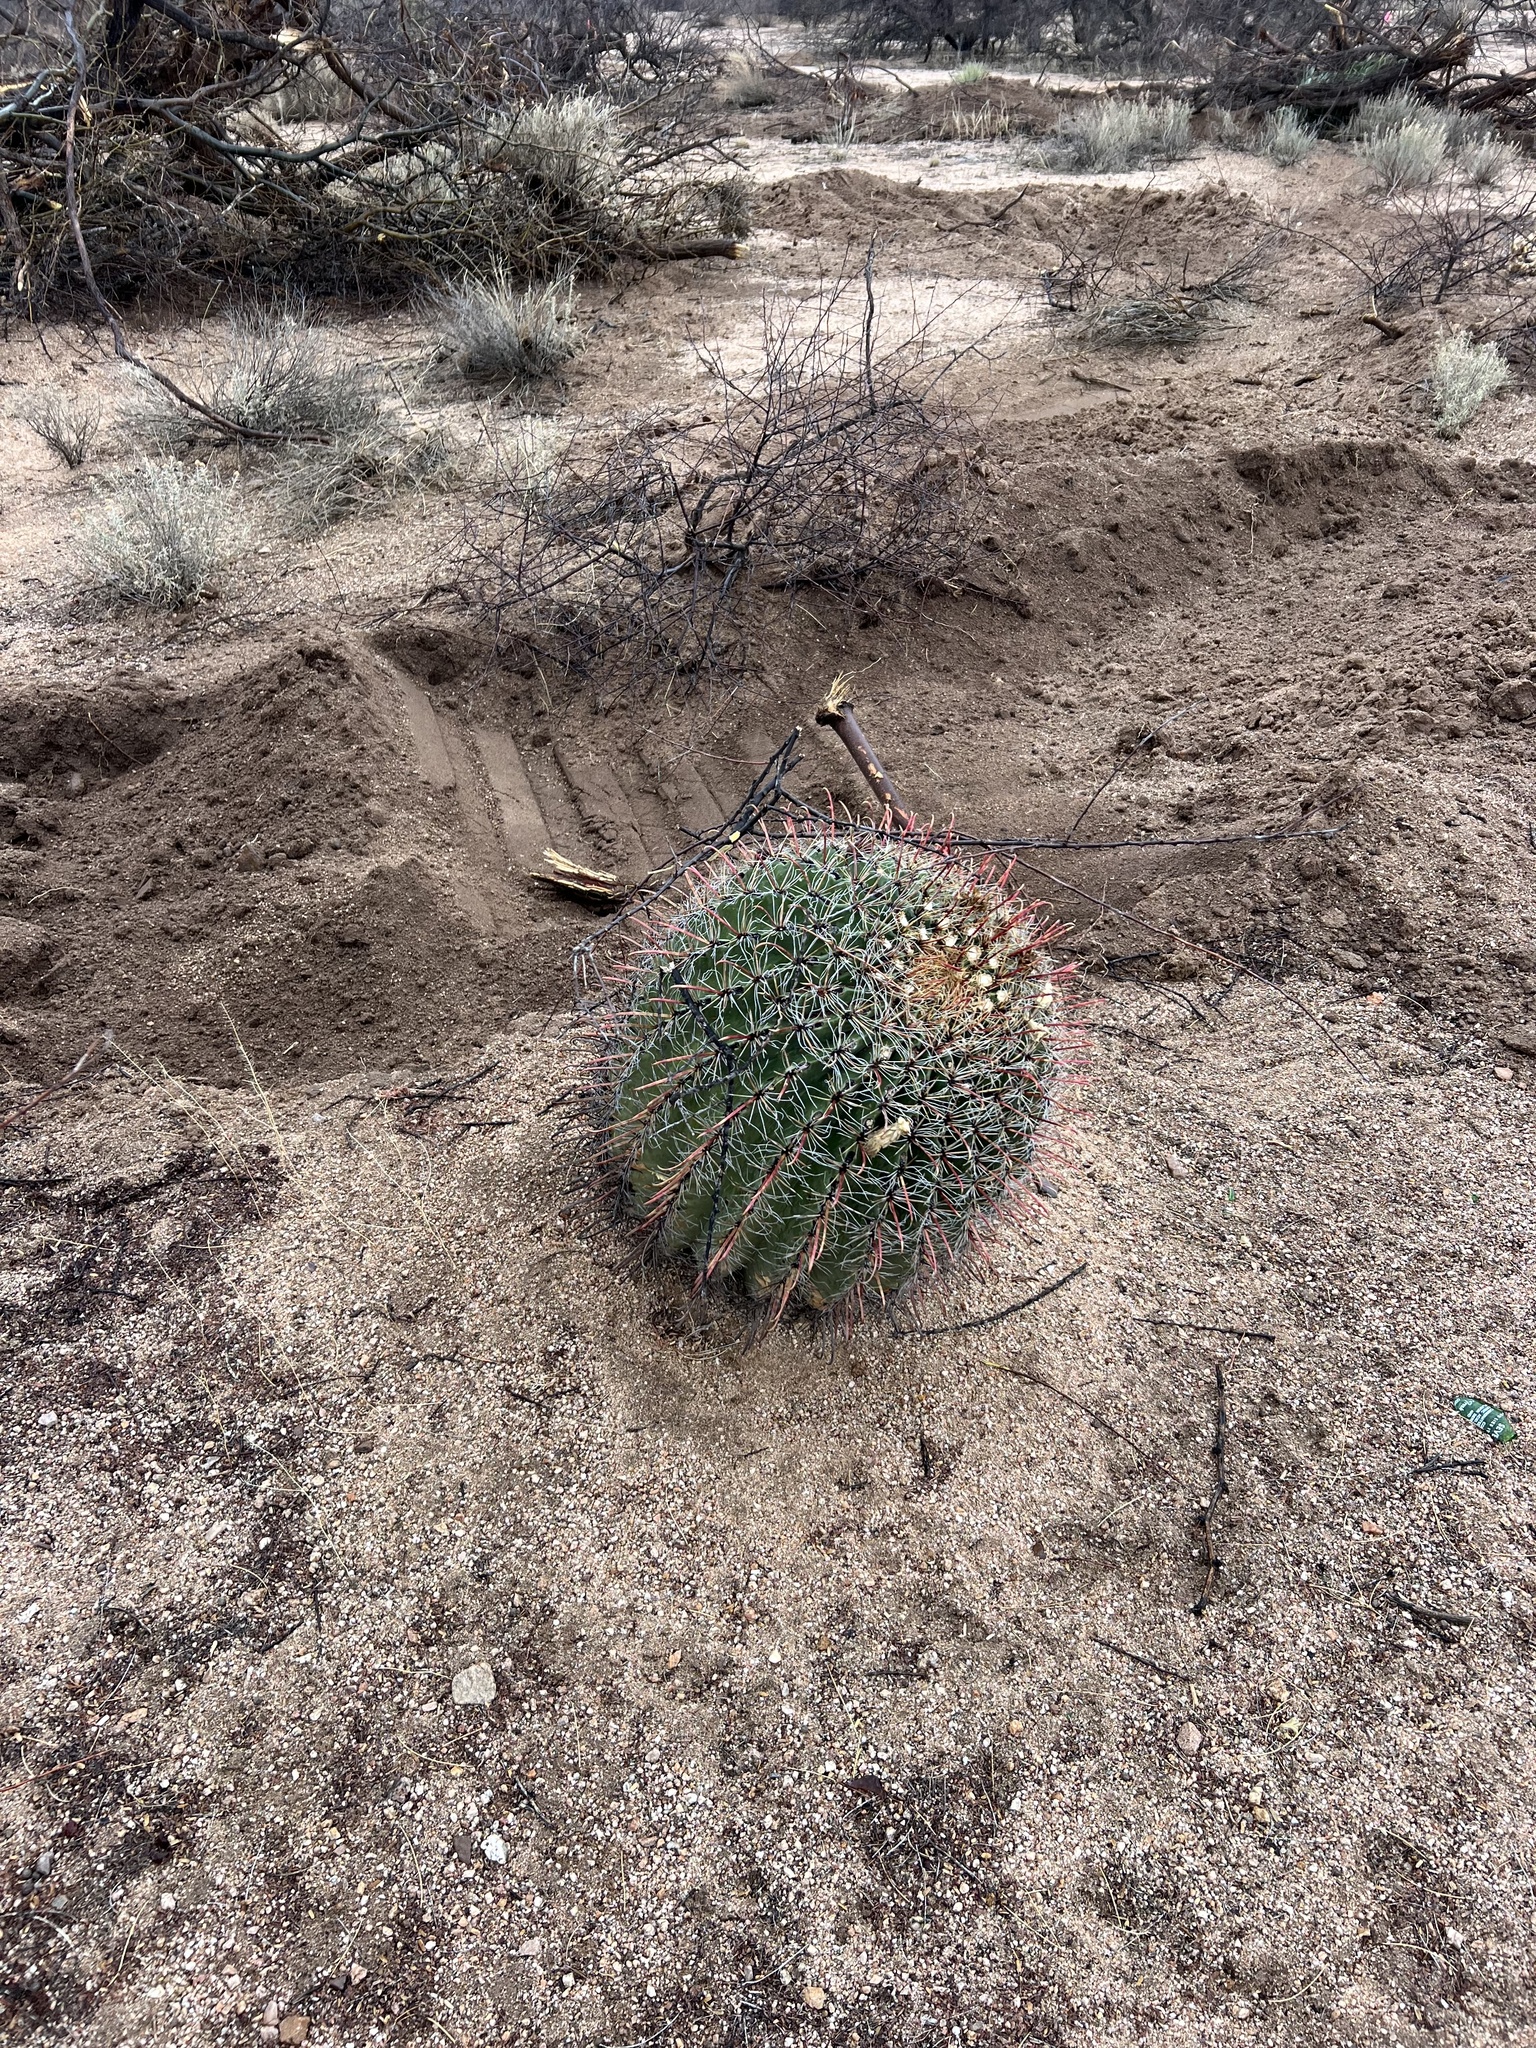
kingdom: Plantae
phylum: Tracheophyta
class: Magnoliopsida
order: Caryophyllales
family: Cactaceae
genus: Ferocactus
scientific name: Ferocactus wislizeni
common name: Candy barrel cactus
